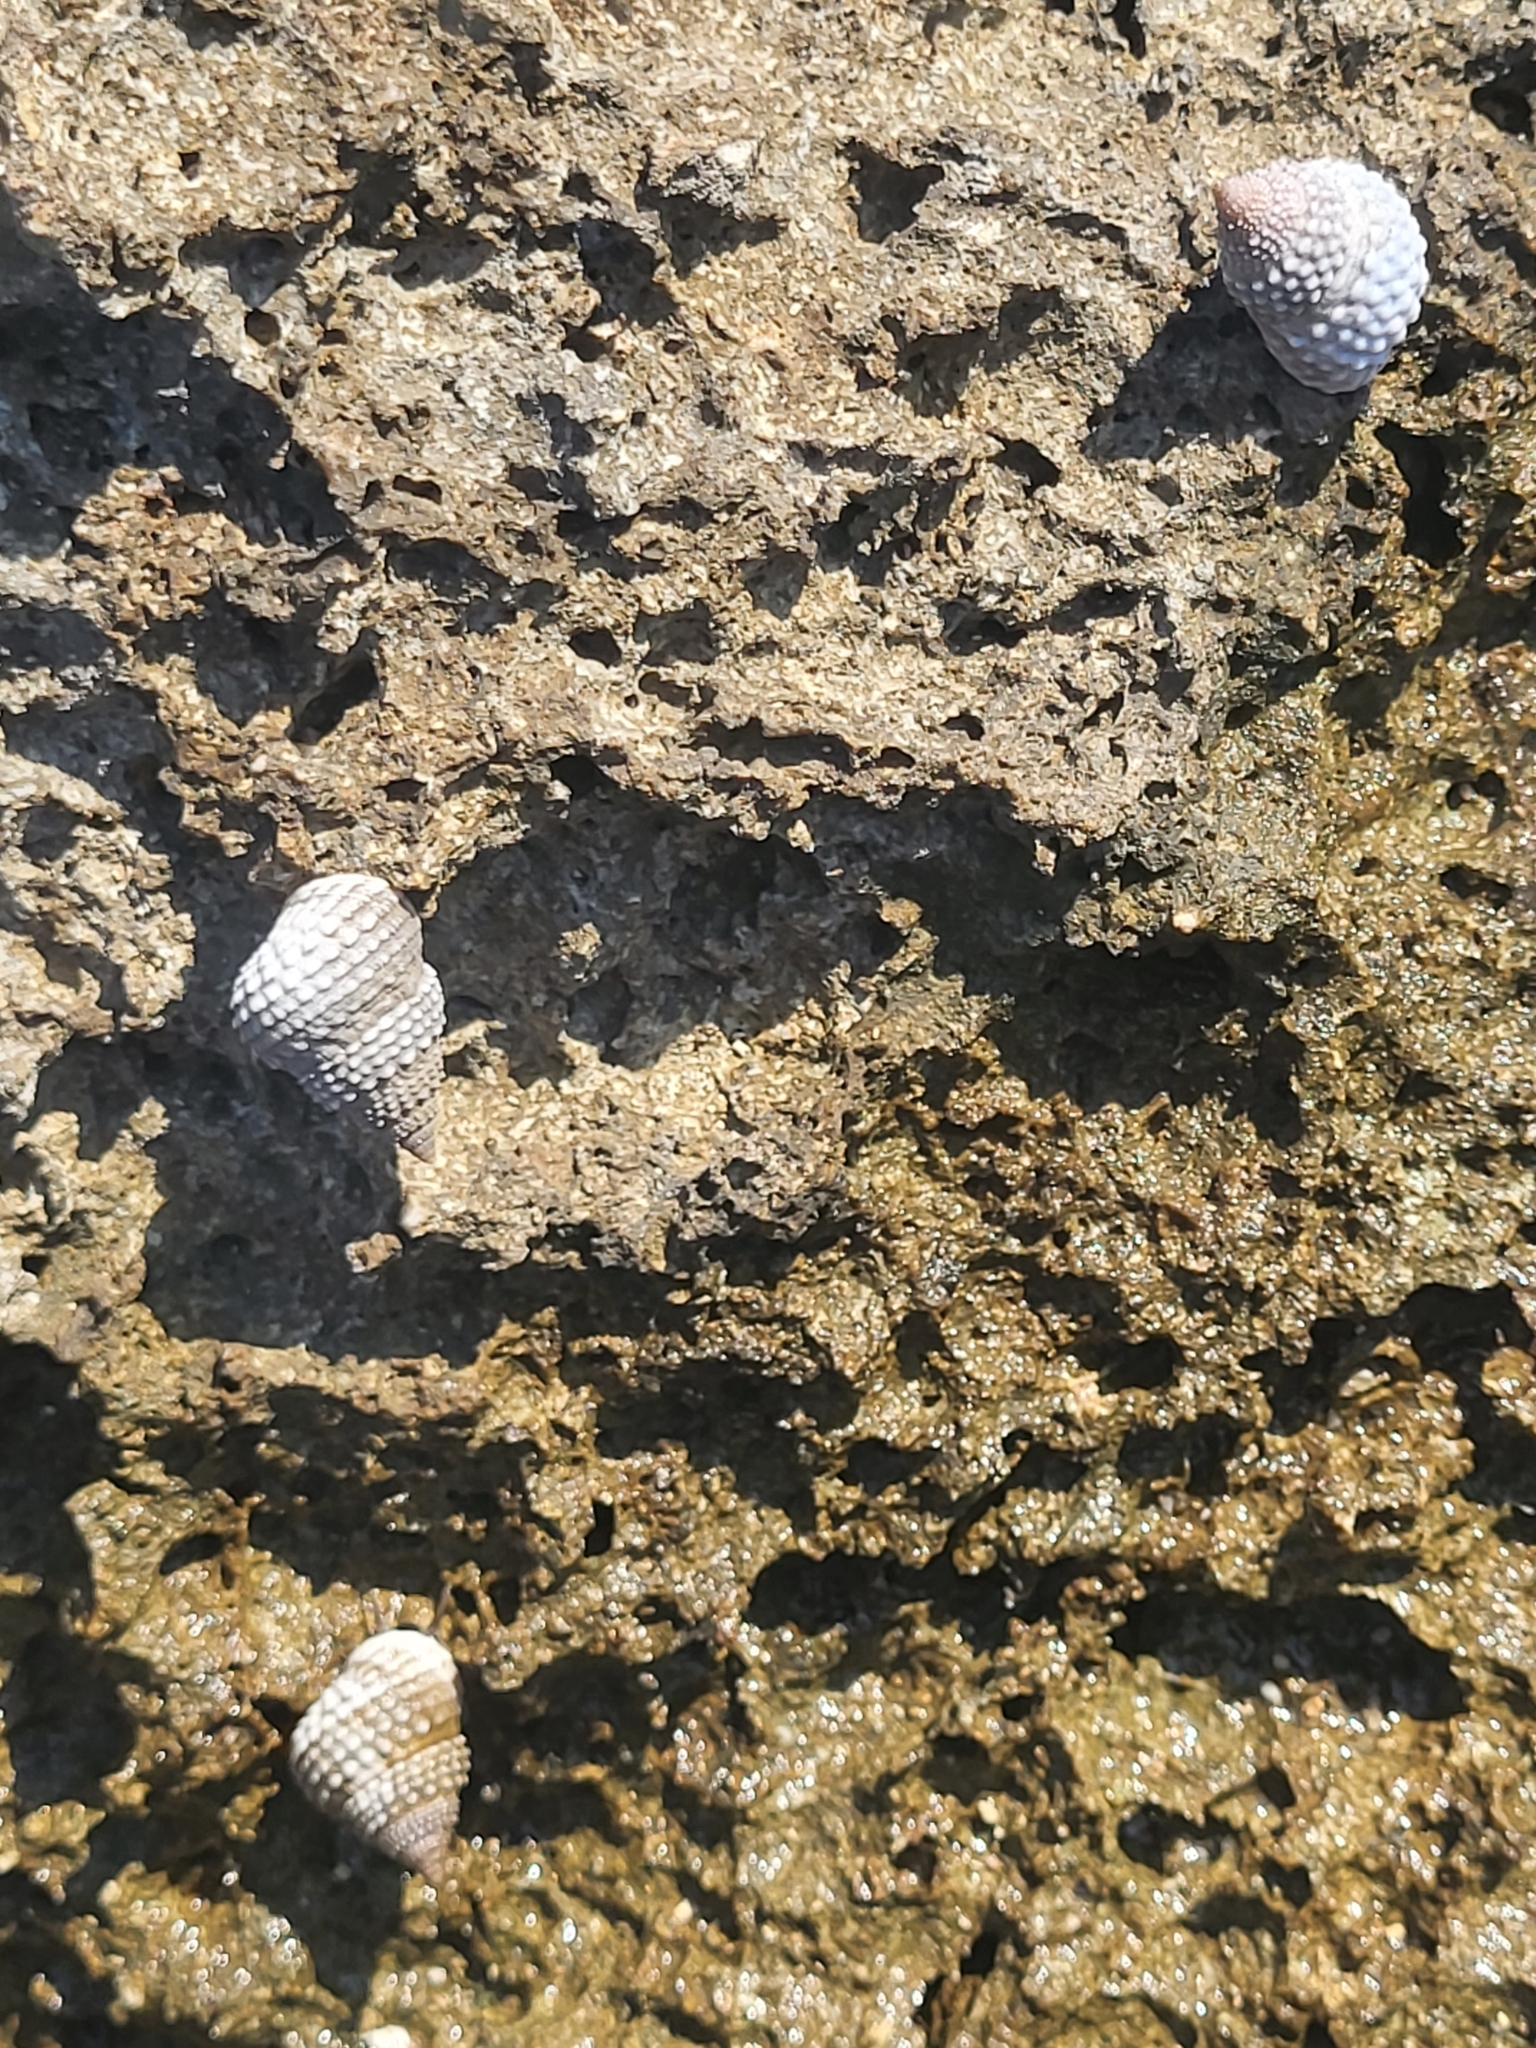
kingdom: Animalia
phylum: Mollusca
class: Gastropoda
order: Littorinimorpha
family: Littorinidae
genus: Cenchritis
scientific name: Cenchritis muricatus
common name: Beaded periwinkle
